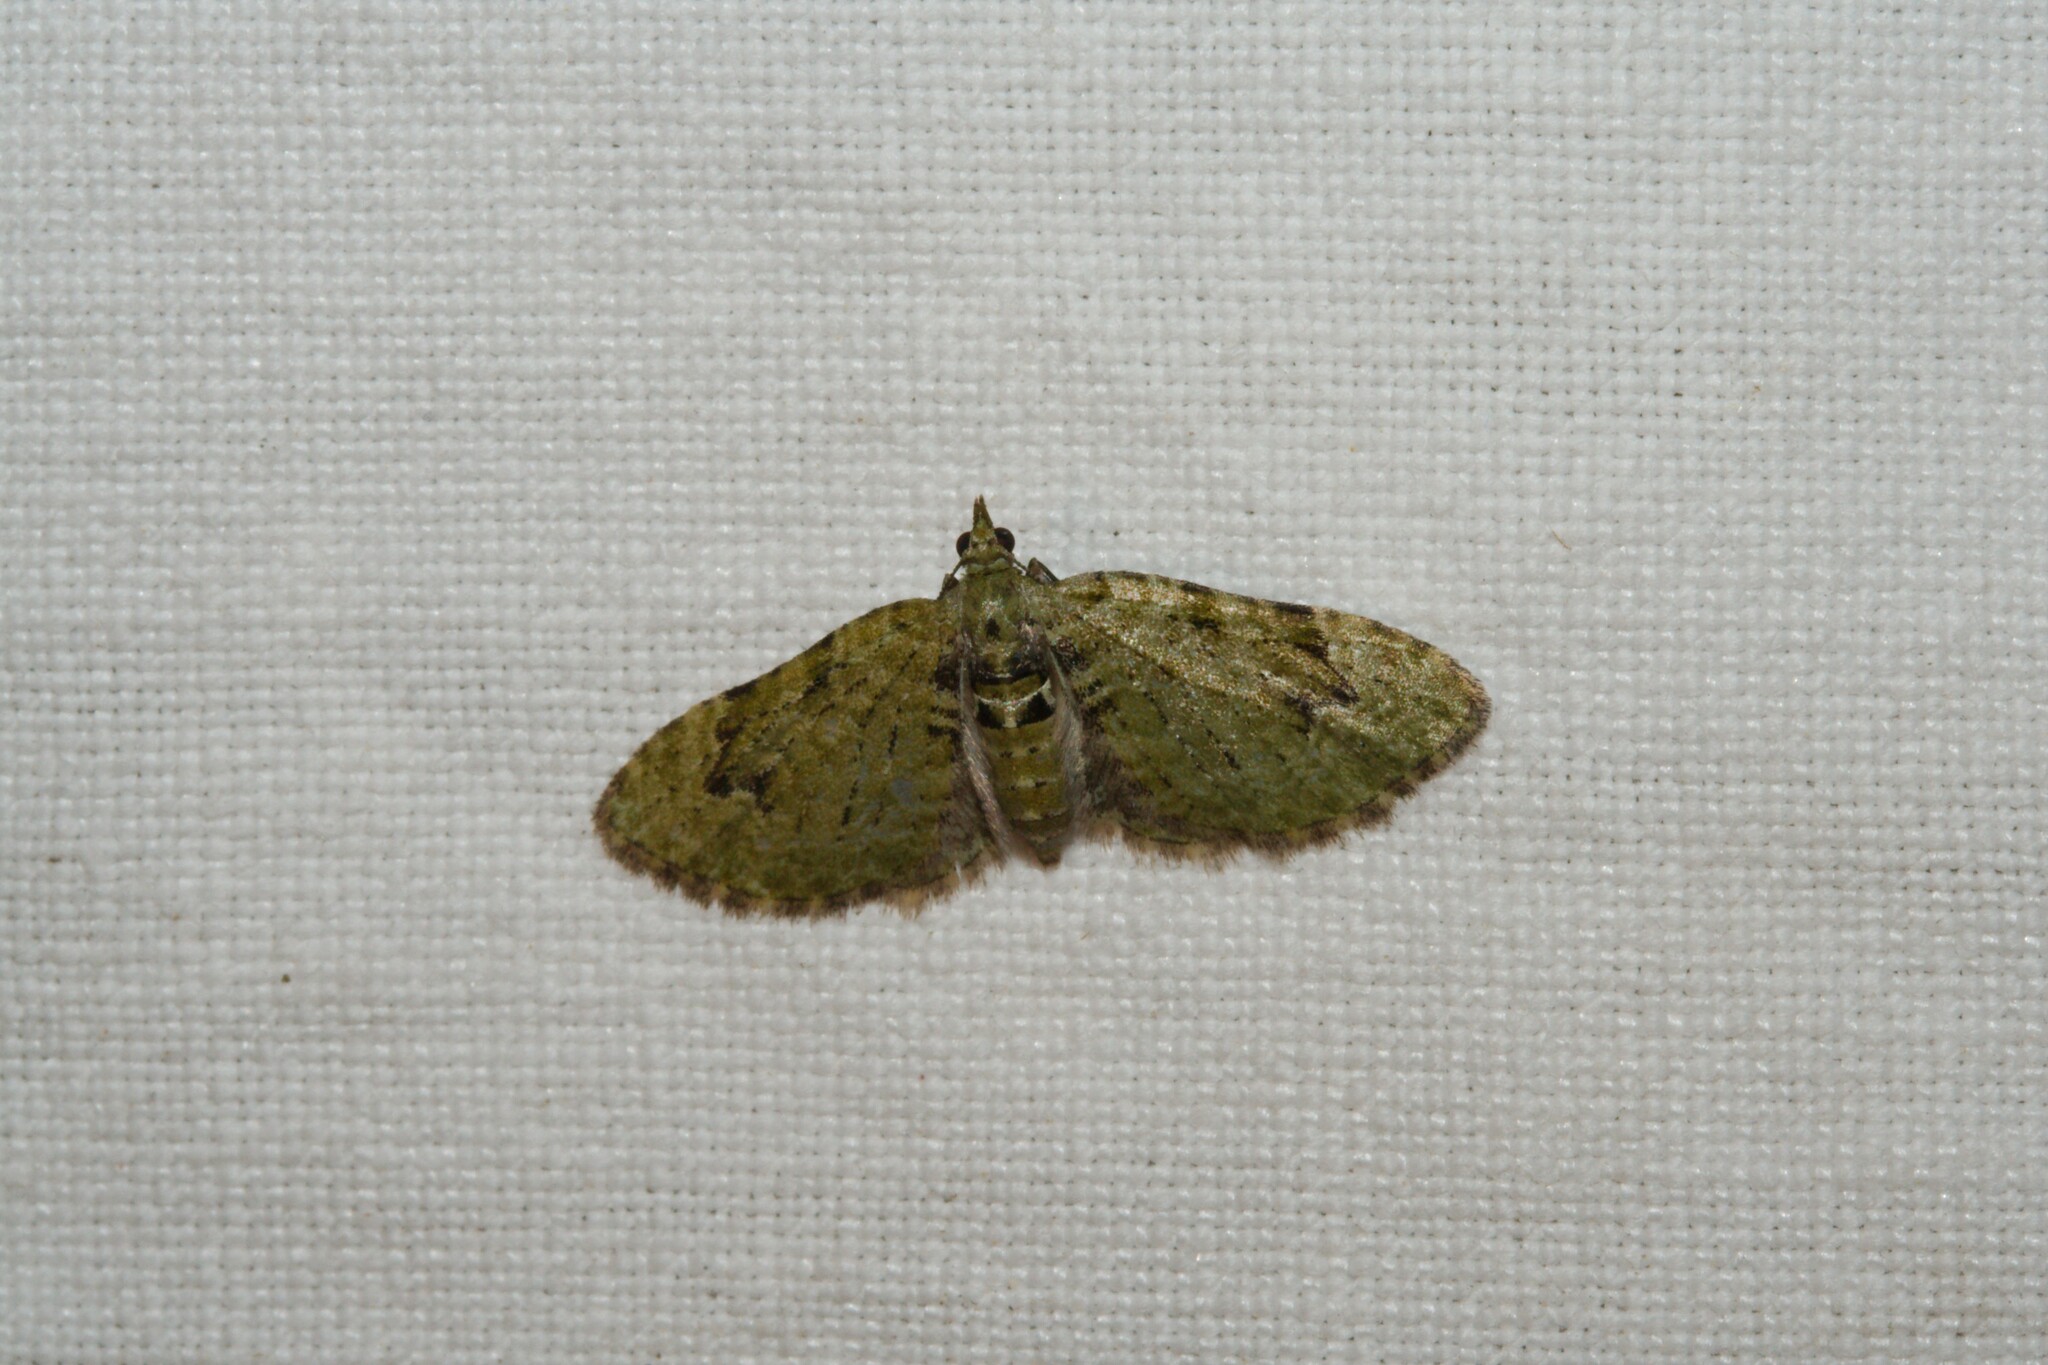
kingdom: Animalia
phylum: Arthropoda
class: Insecta
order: Lepidoptera
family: Geometridae
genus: Chloroclystis
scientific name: Chloroclystis v-ata
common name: V-pug
